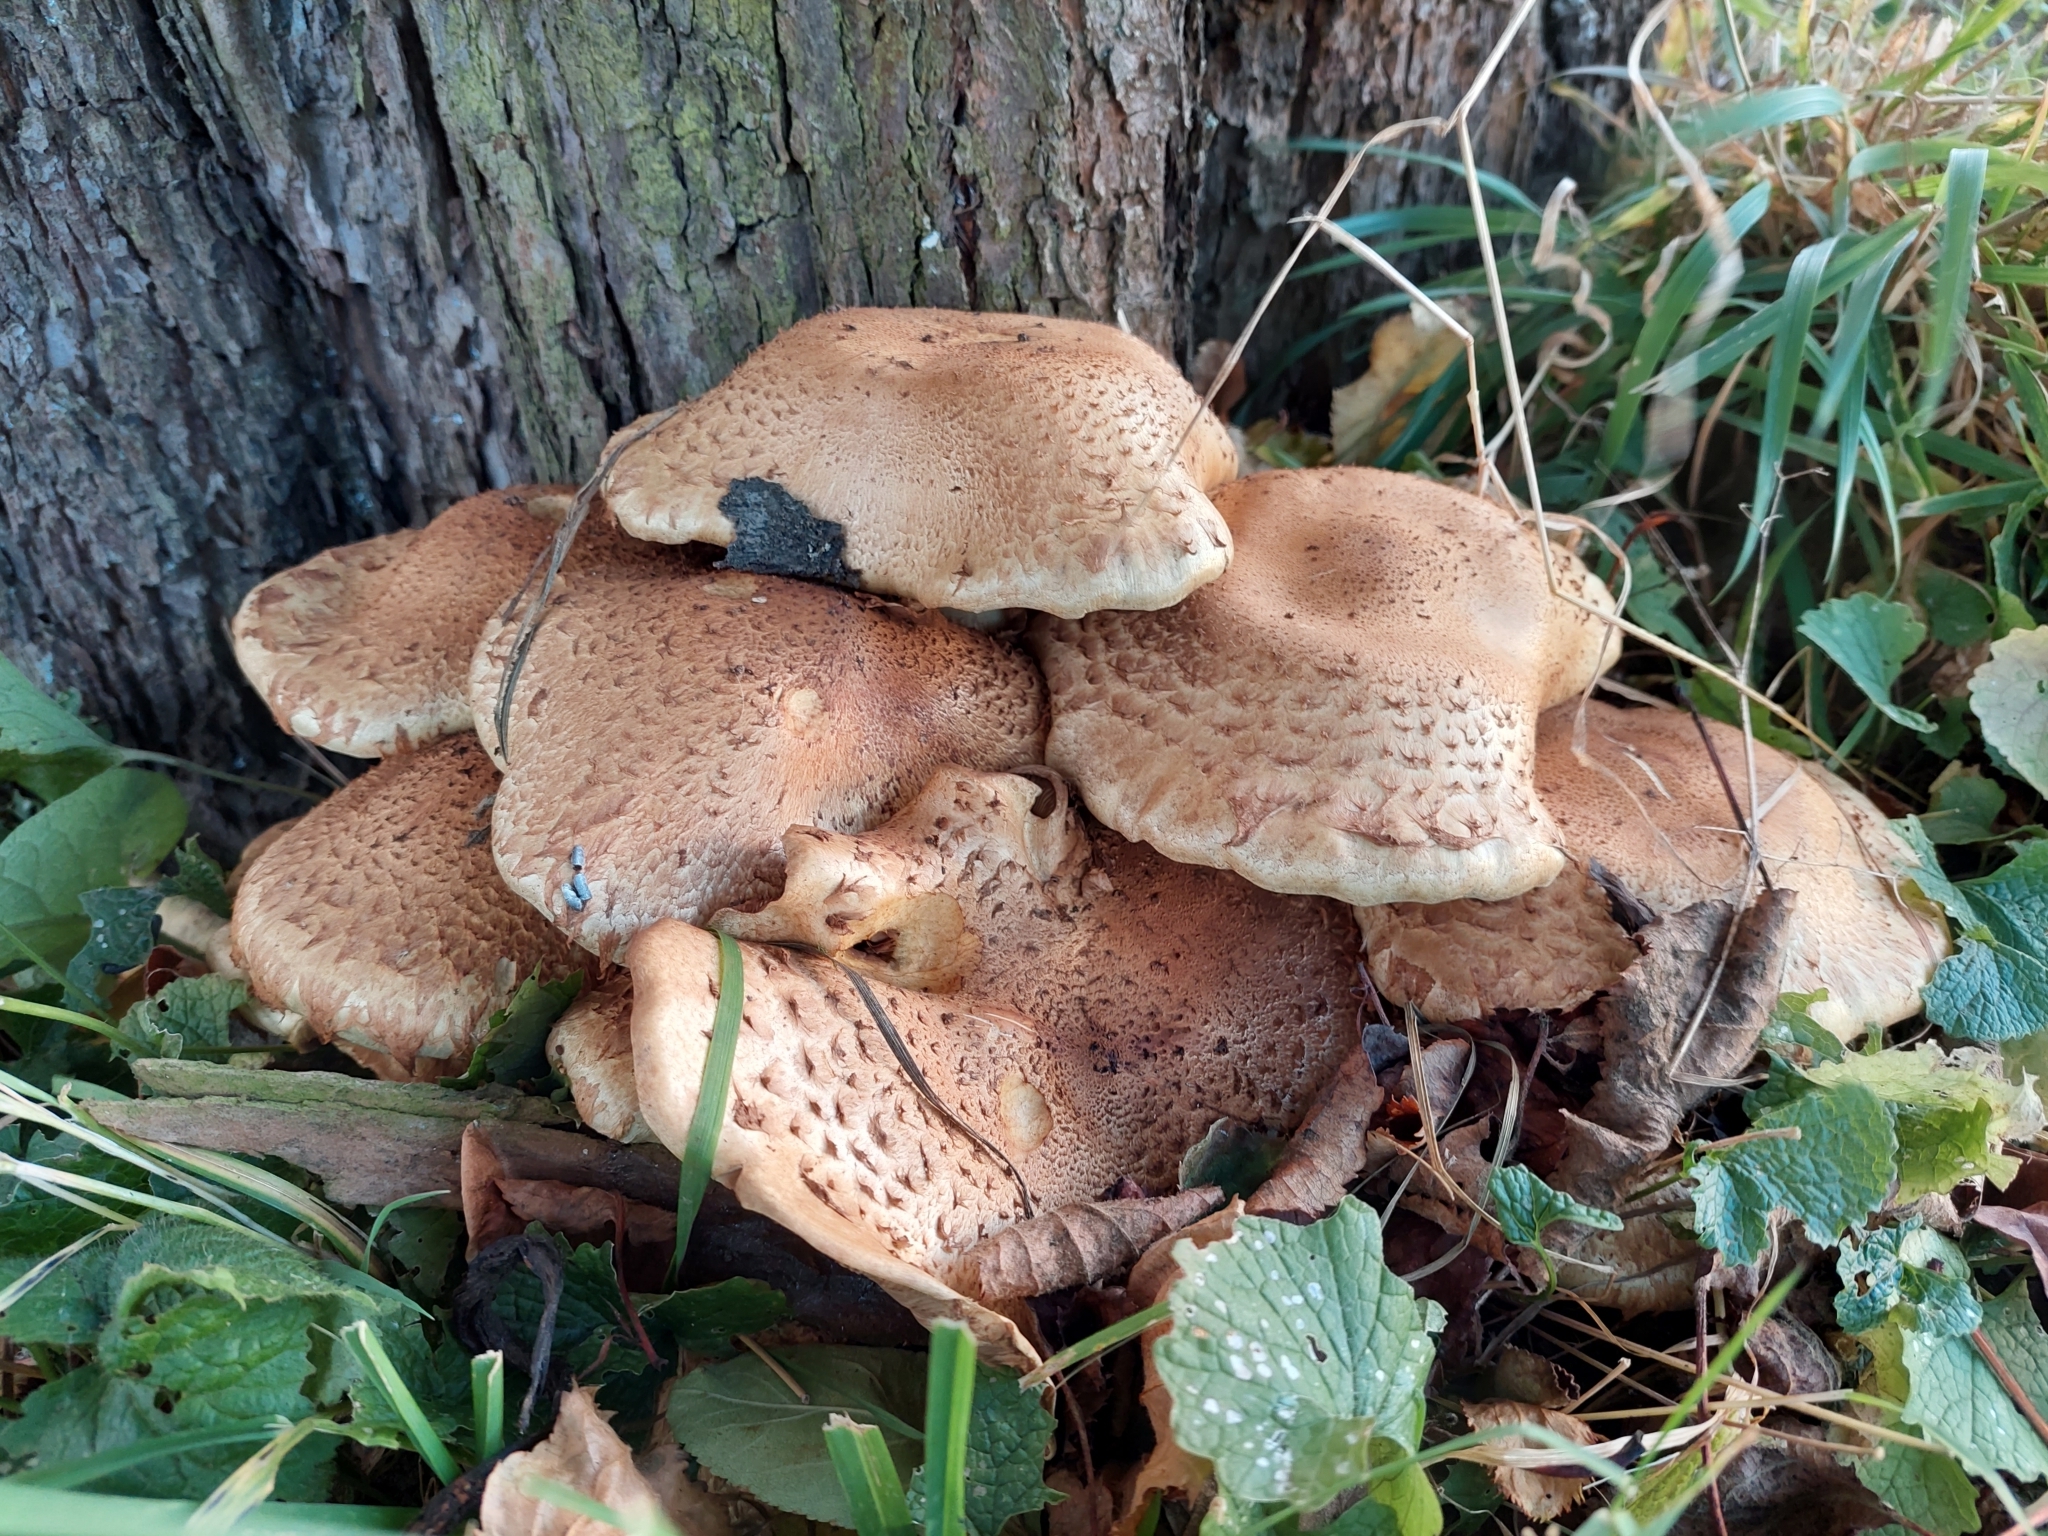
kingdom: Fungi
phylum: Basidiomycota
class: Agaricomycetes
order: Agaricales
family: Strophariaceae
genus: Pholiota
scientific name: Pholiota squarrosa
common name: Shaggy pholiota
